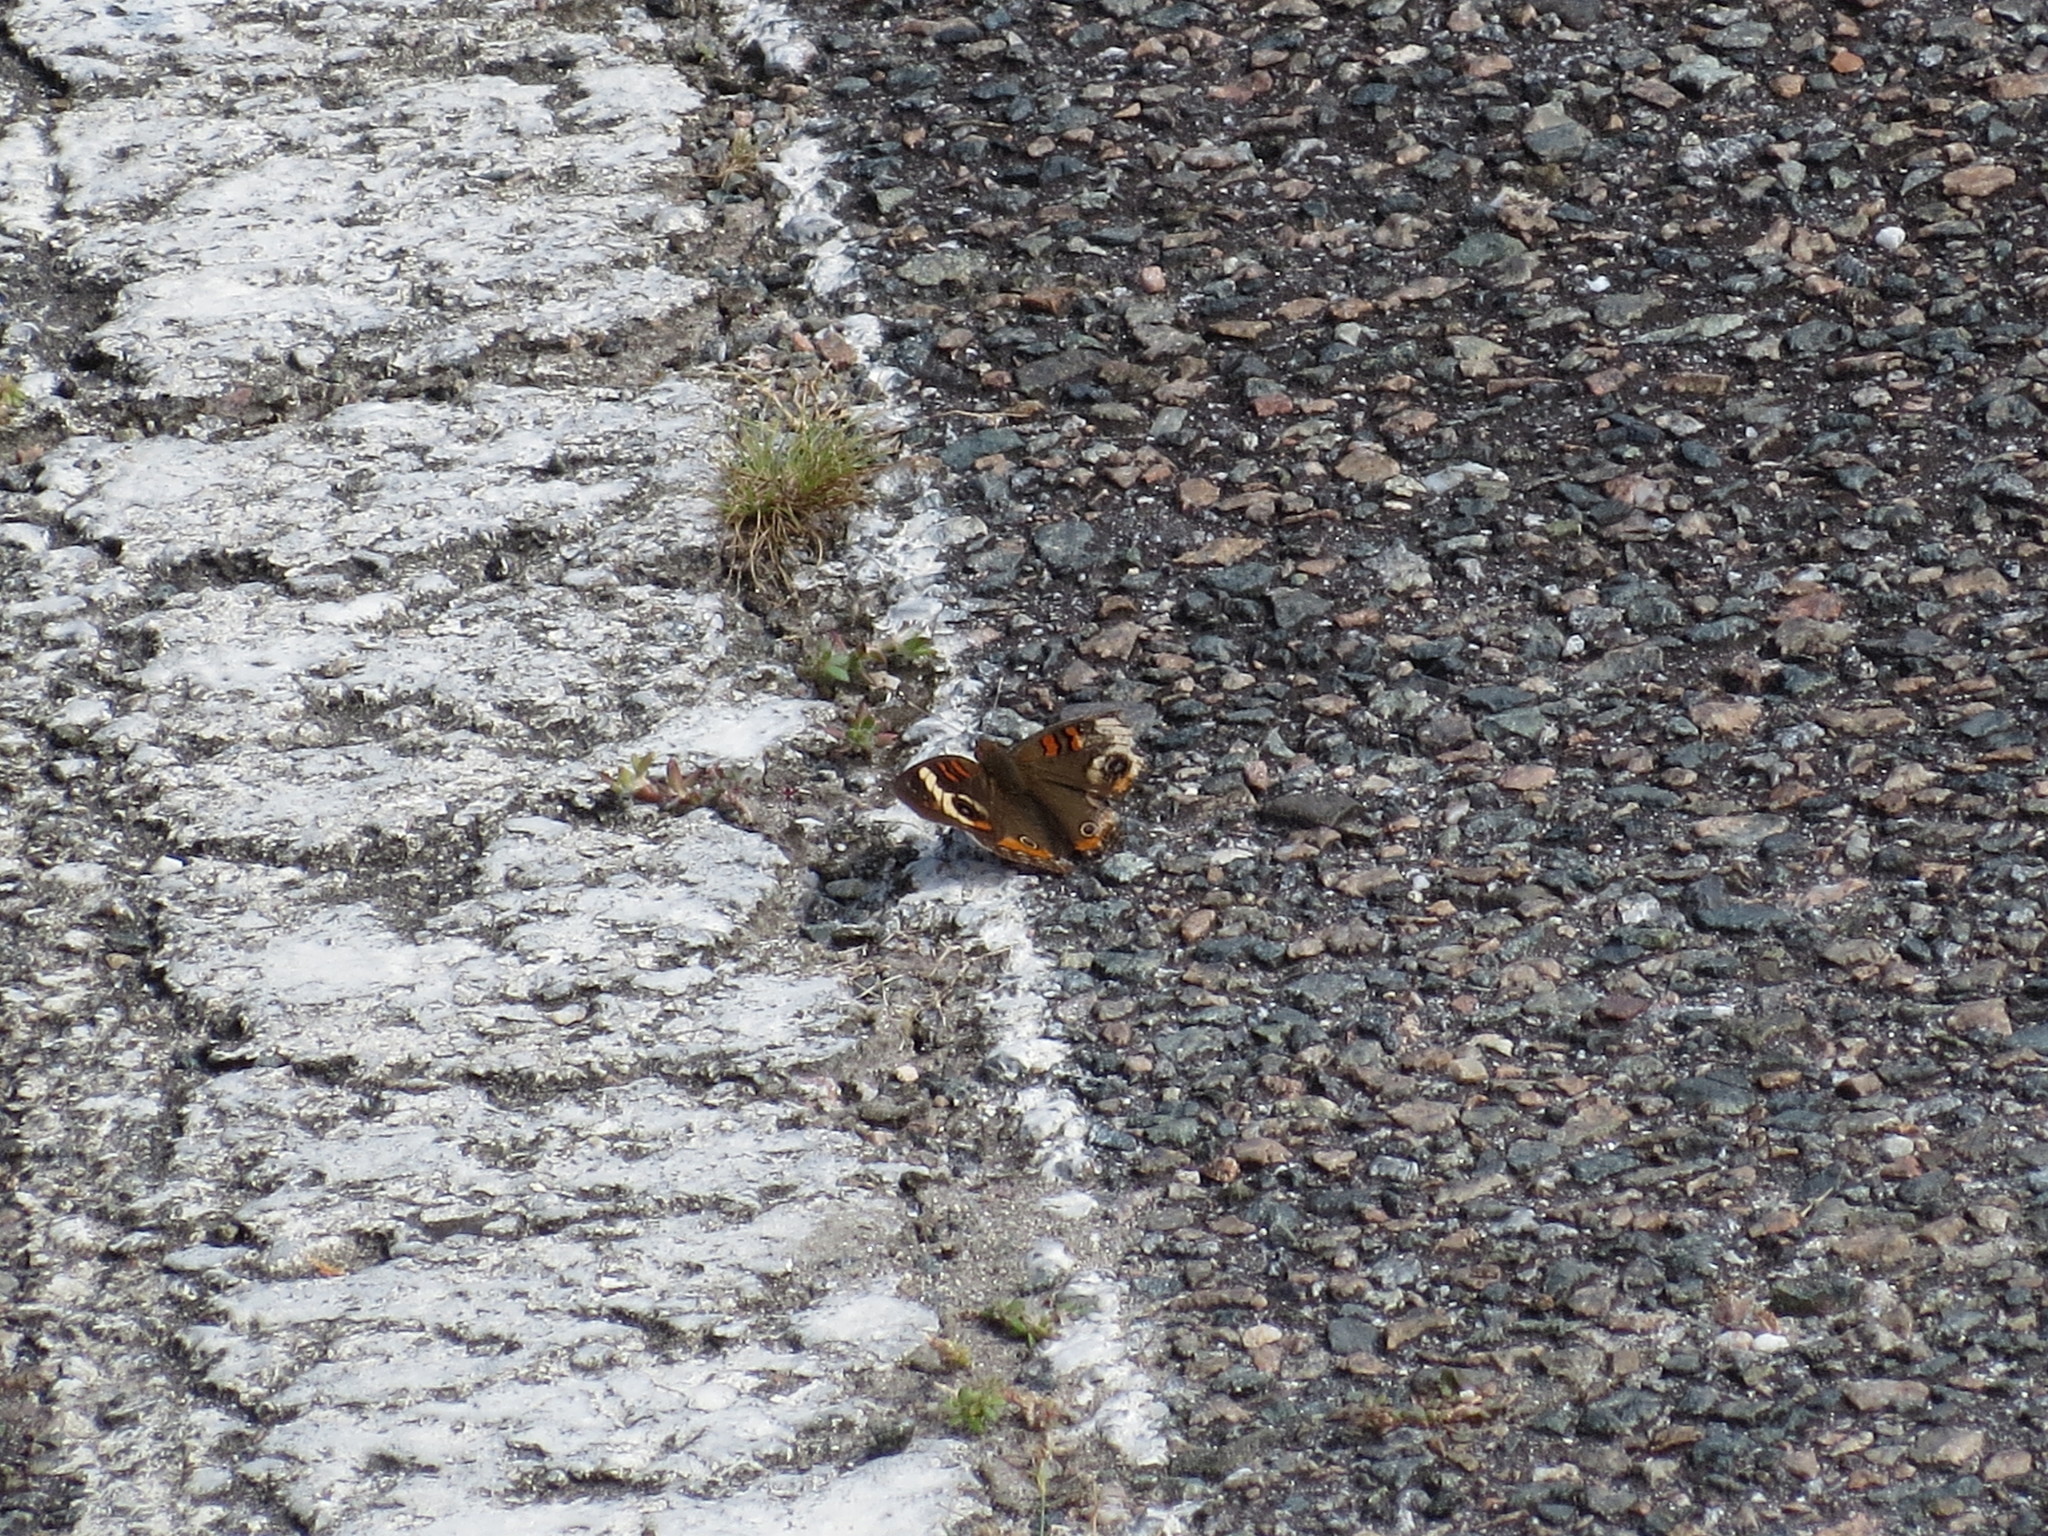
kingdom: Animalia
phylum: Arthropoda
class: Insecta
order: Lepidoptera
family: Nymphalidae
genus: Junonia
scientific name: Junonia coenia
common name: Common buckeye
